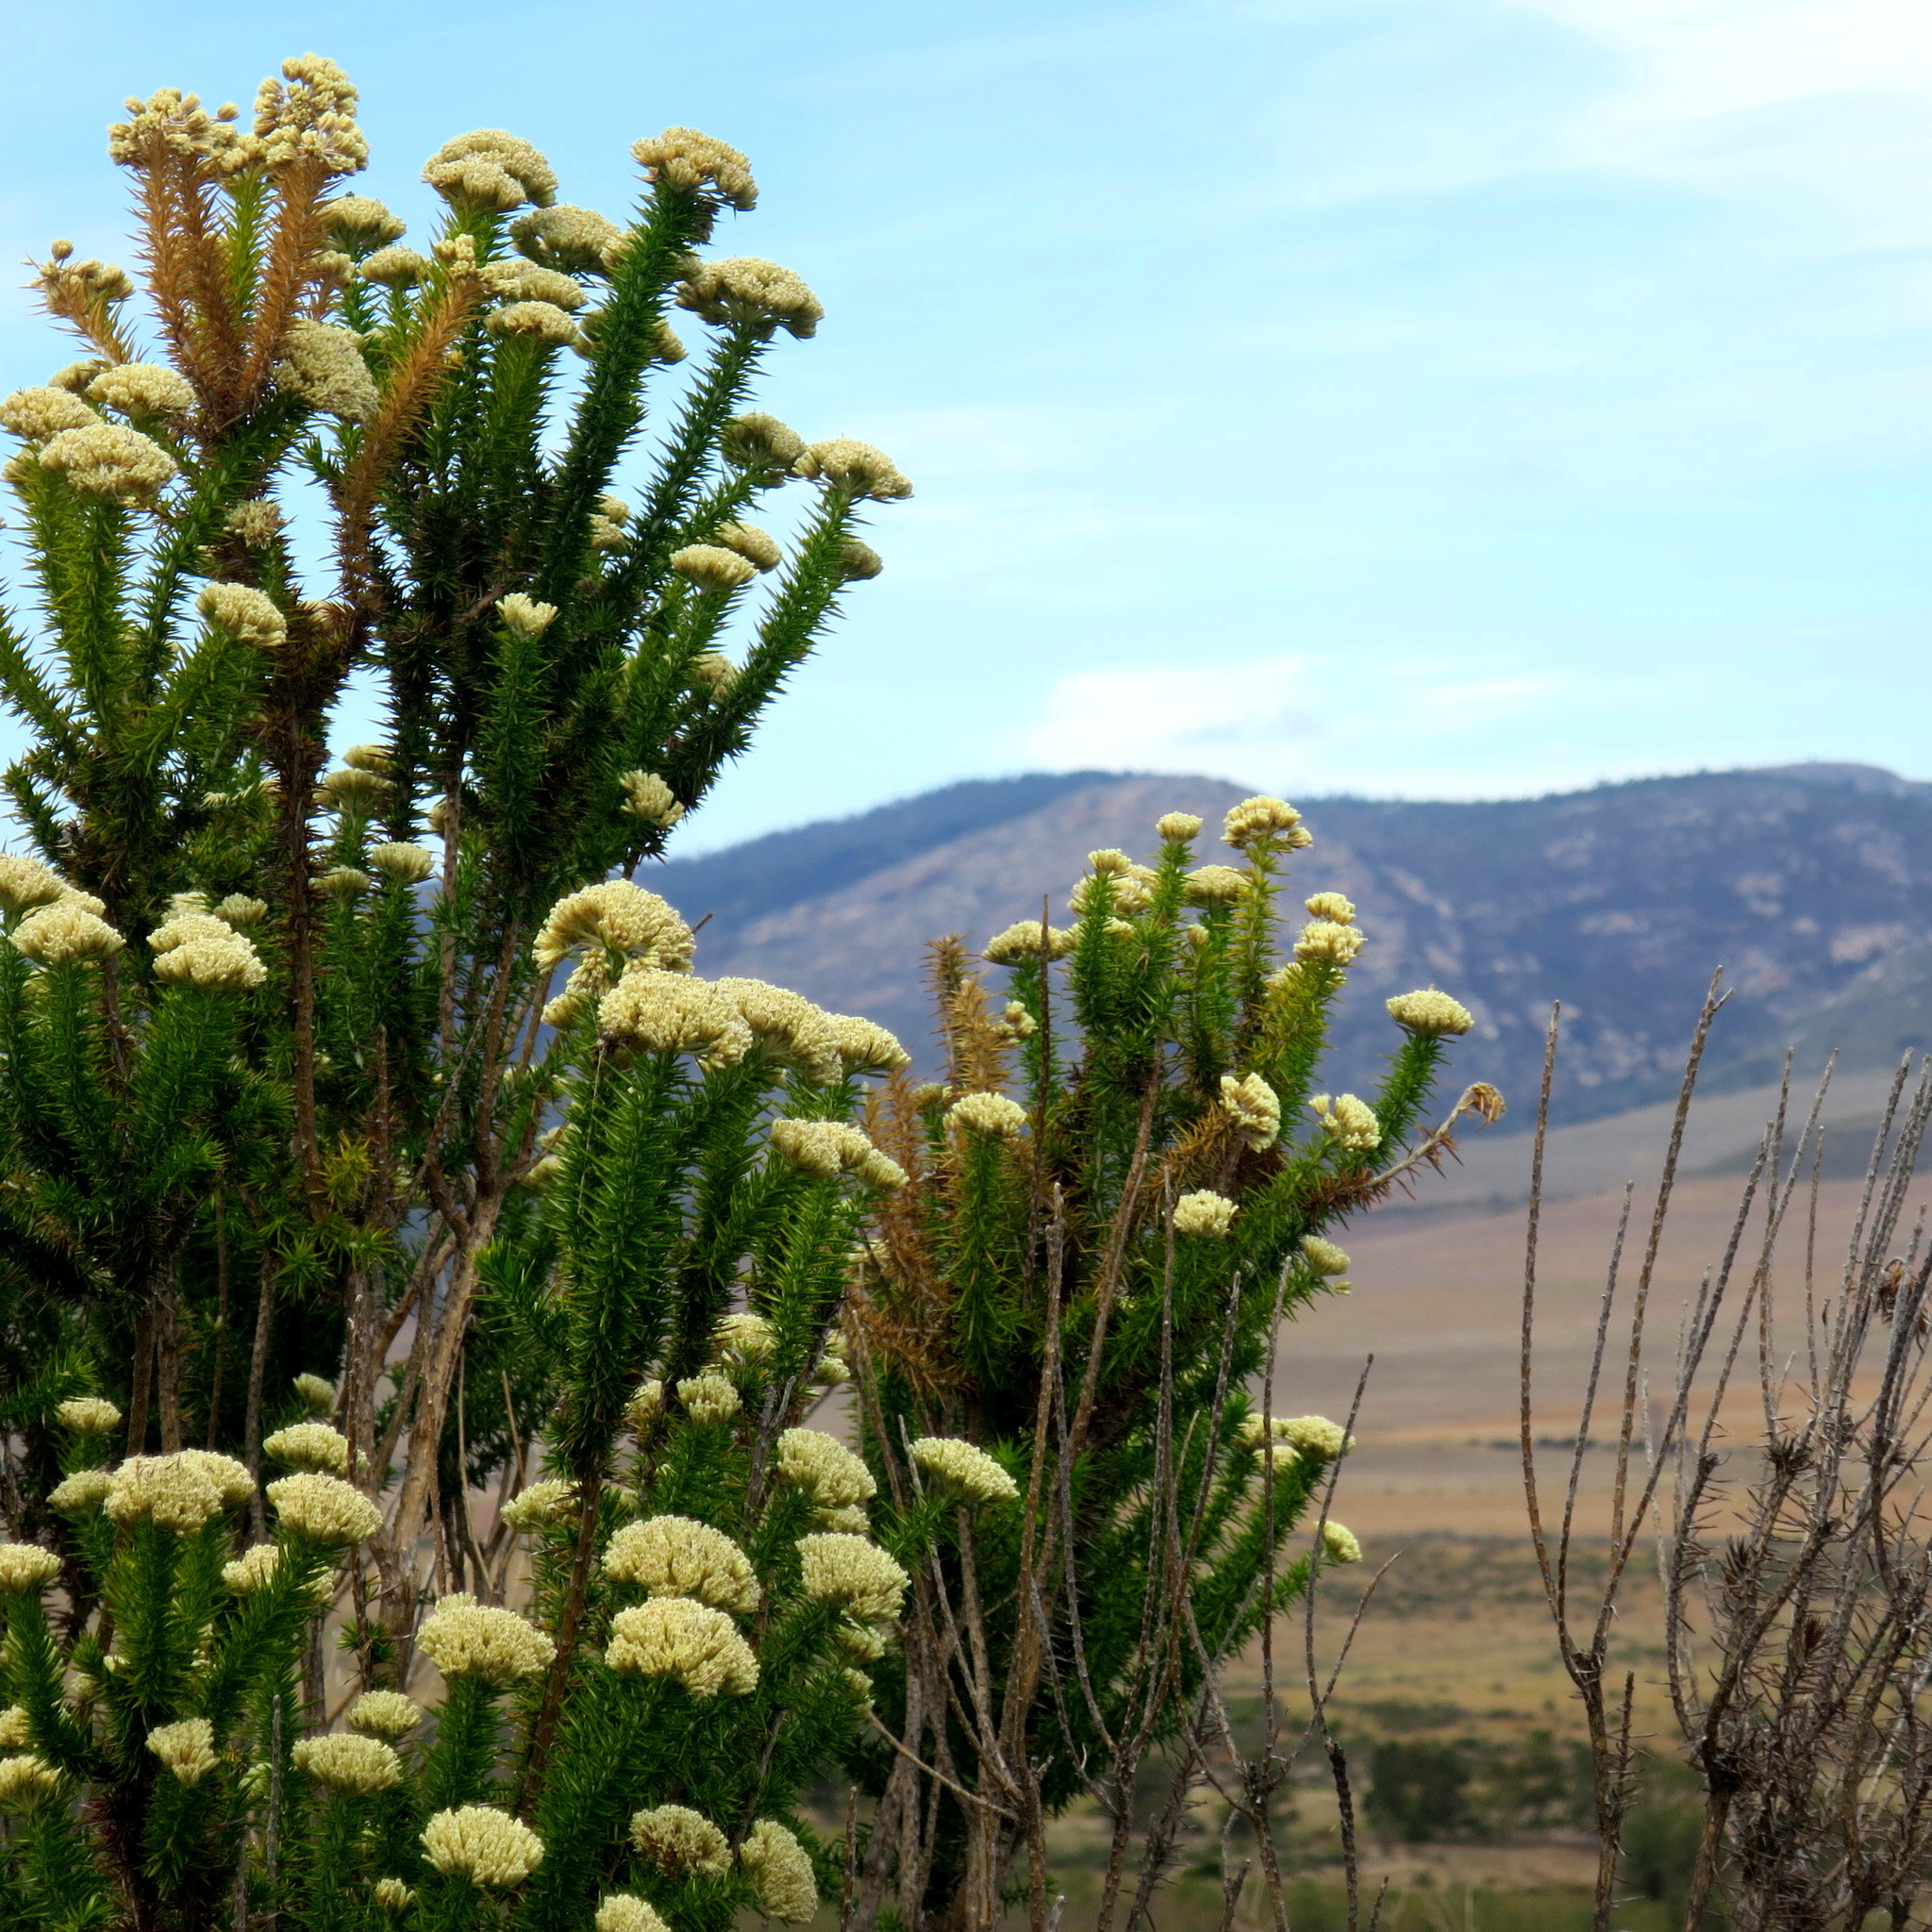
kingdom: Plantae
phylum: Tracheophyta
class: Magnoliopsida
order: Asterales
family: Asteraceae
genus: Metalasia
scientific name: Metalasia trivialis
